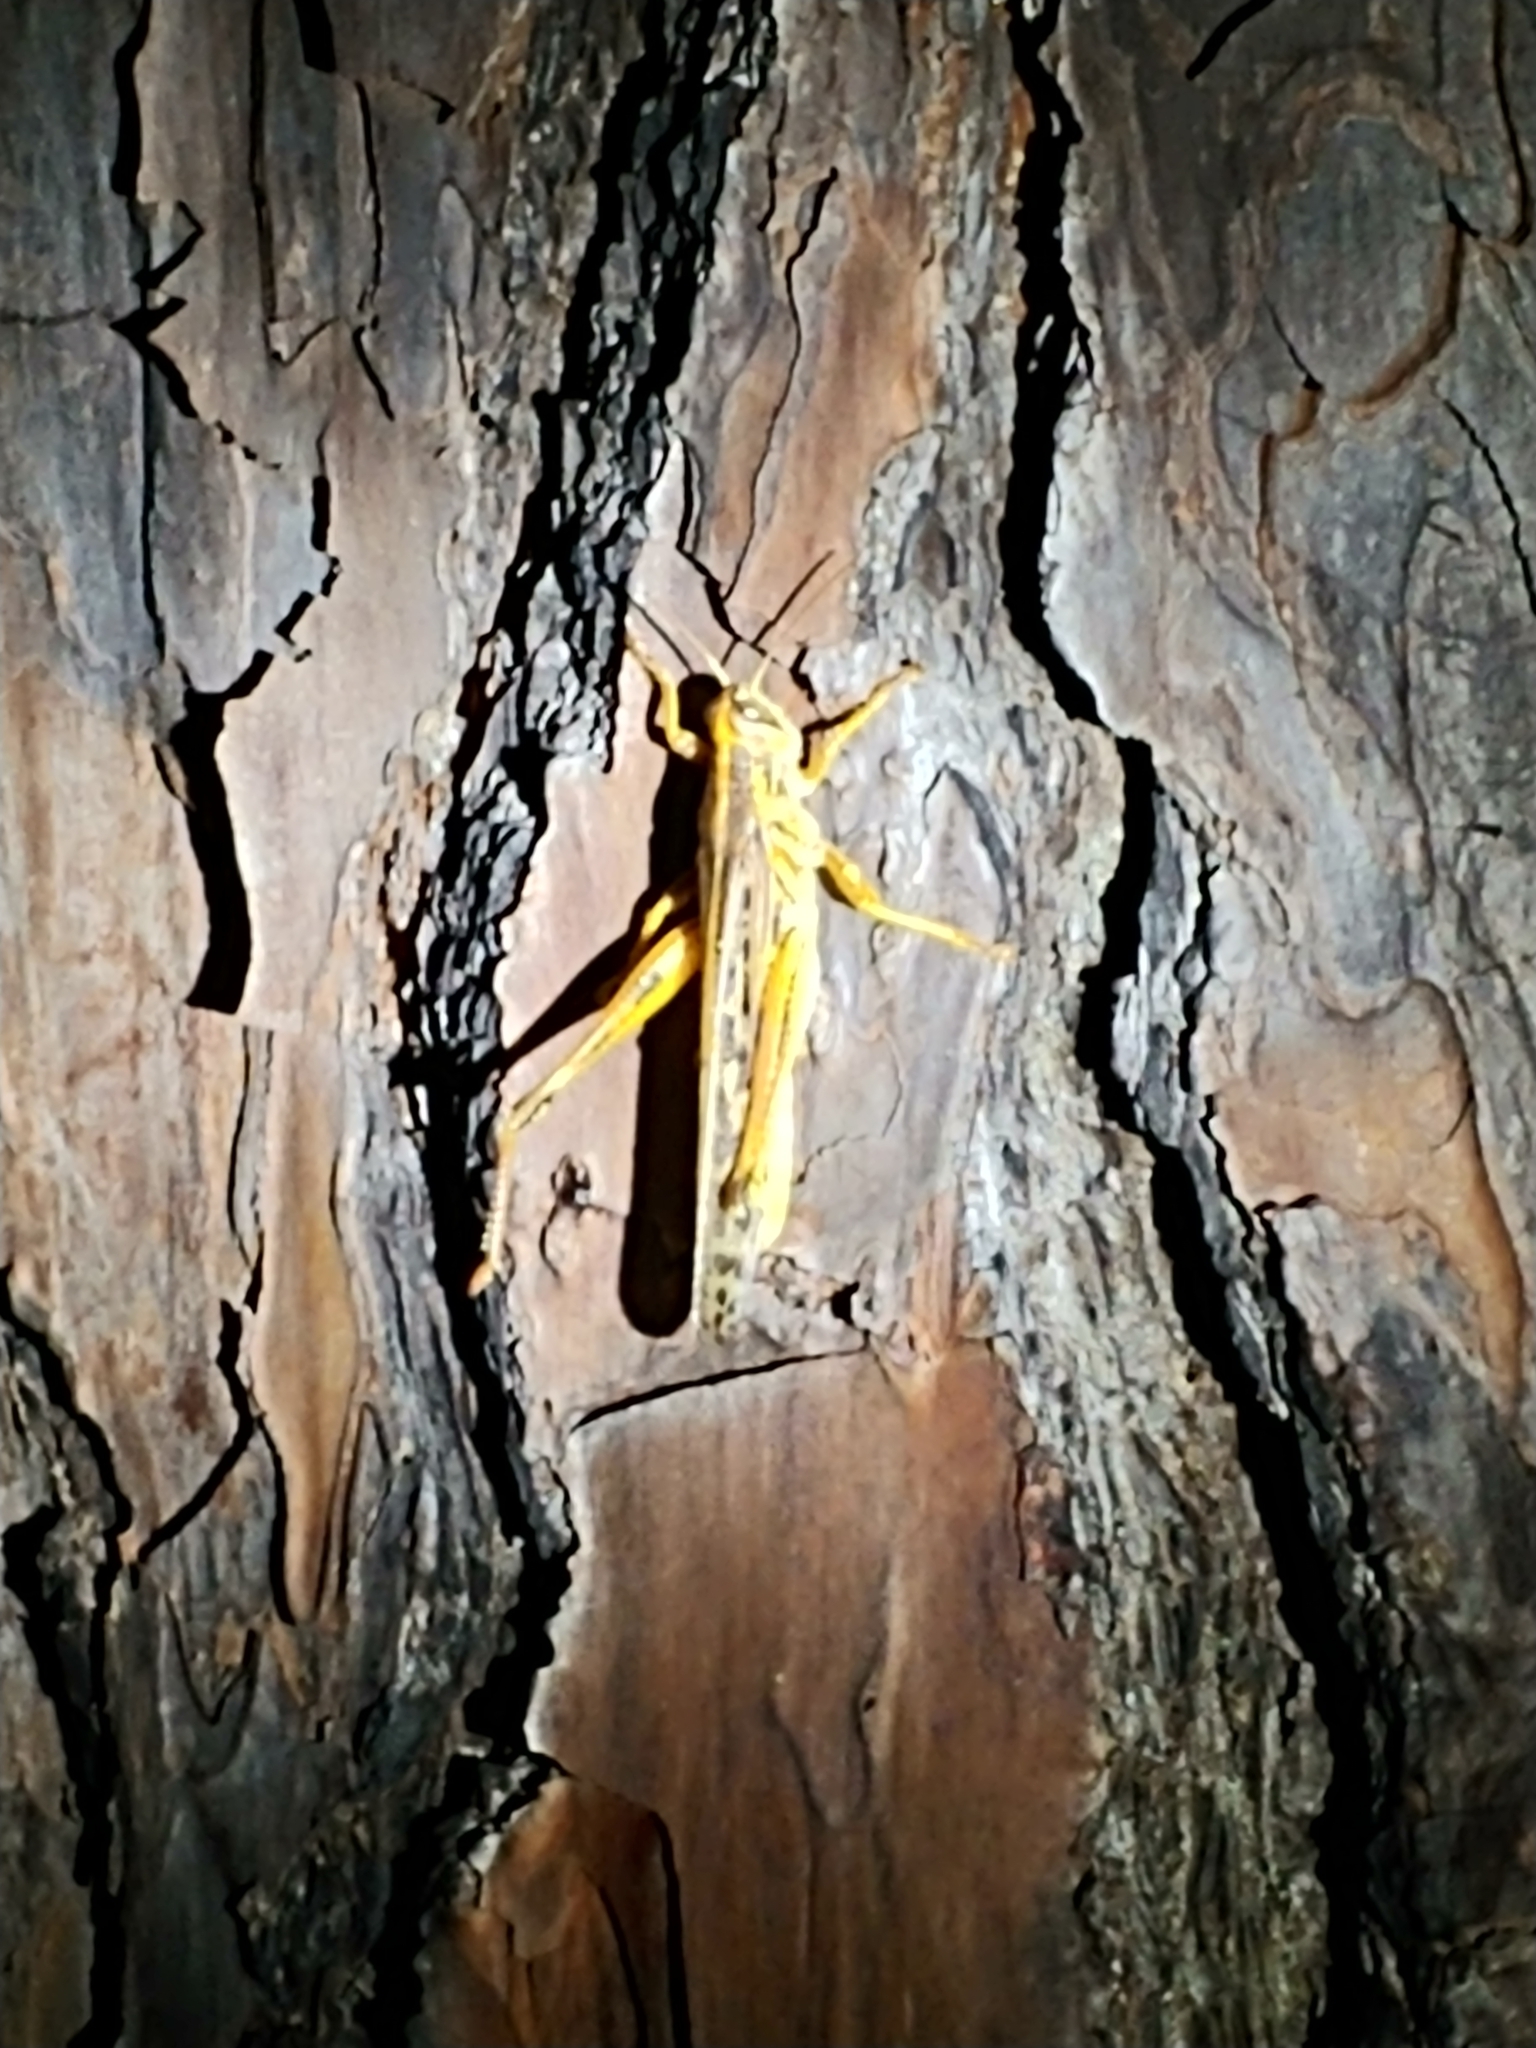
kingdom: Animalia
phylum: Arthropoda
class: Insecta
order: Orthoptera
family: Acrididae
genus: Schistocerca
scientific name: Schistocerca americana
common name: American bird locust
